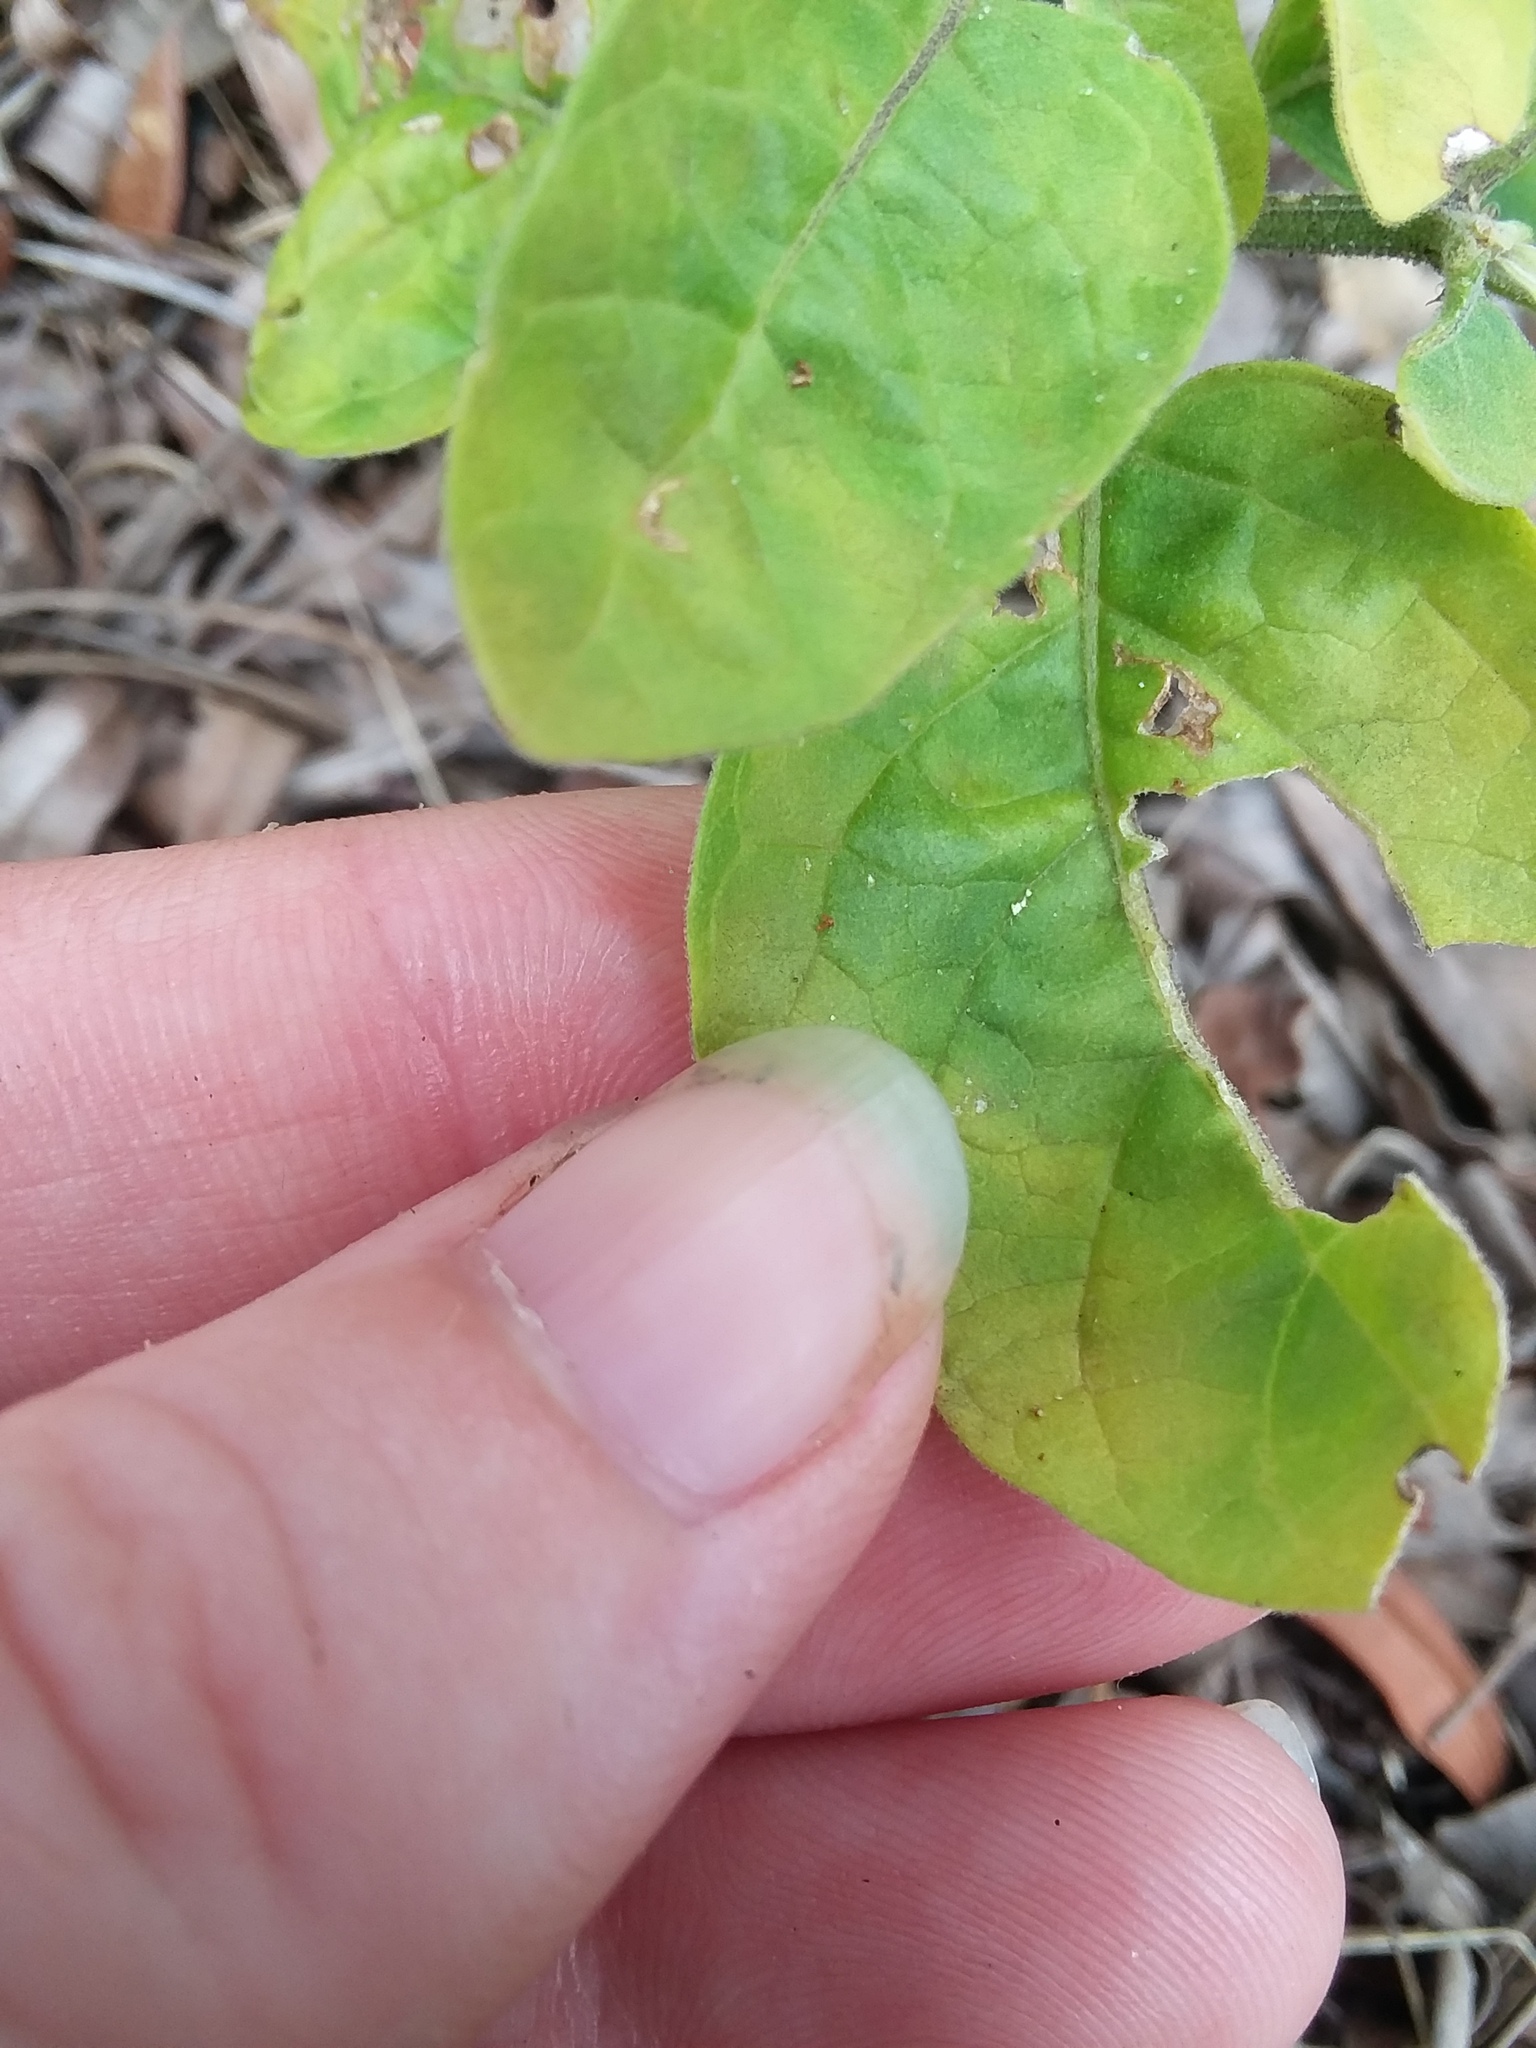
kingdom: Plantae
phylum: Tracheophyta
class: Magnoliopsida
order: Solanales
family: Solanaceae
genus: Physalis
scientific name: Physalis walteri
